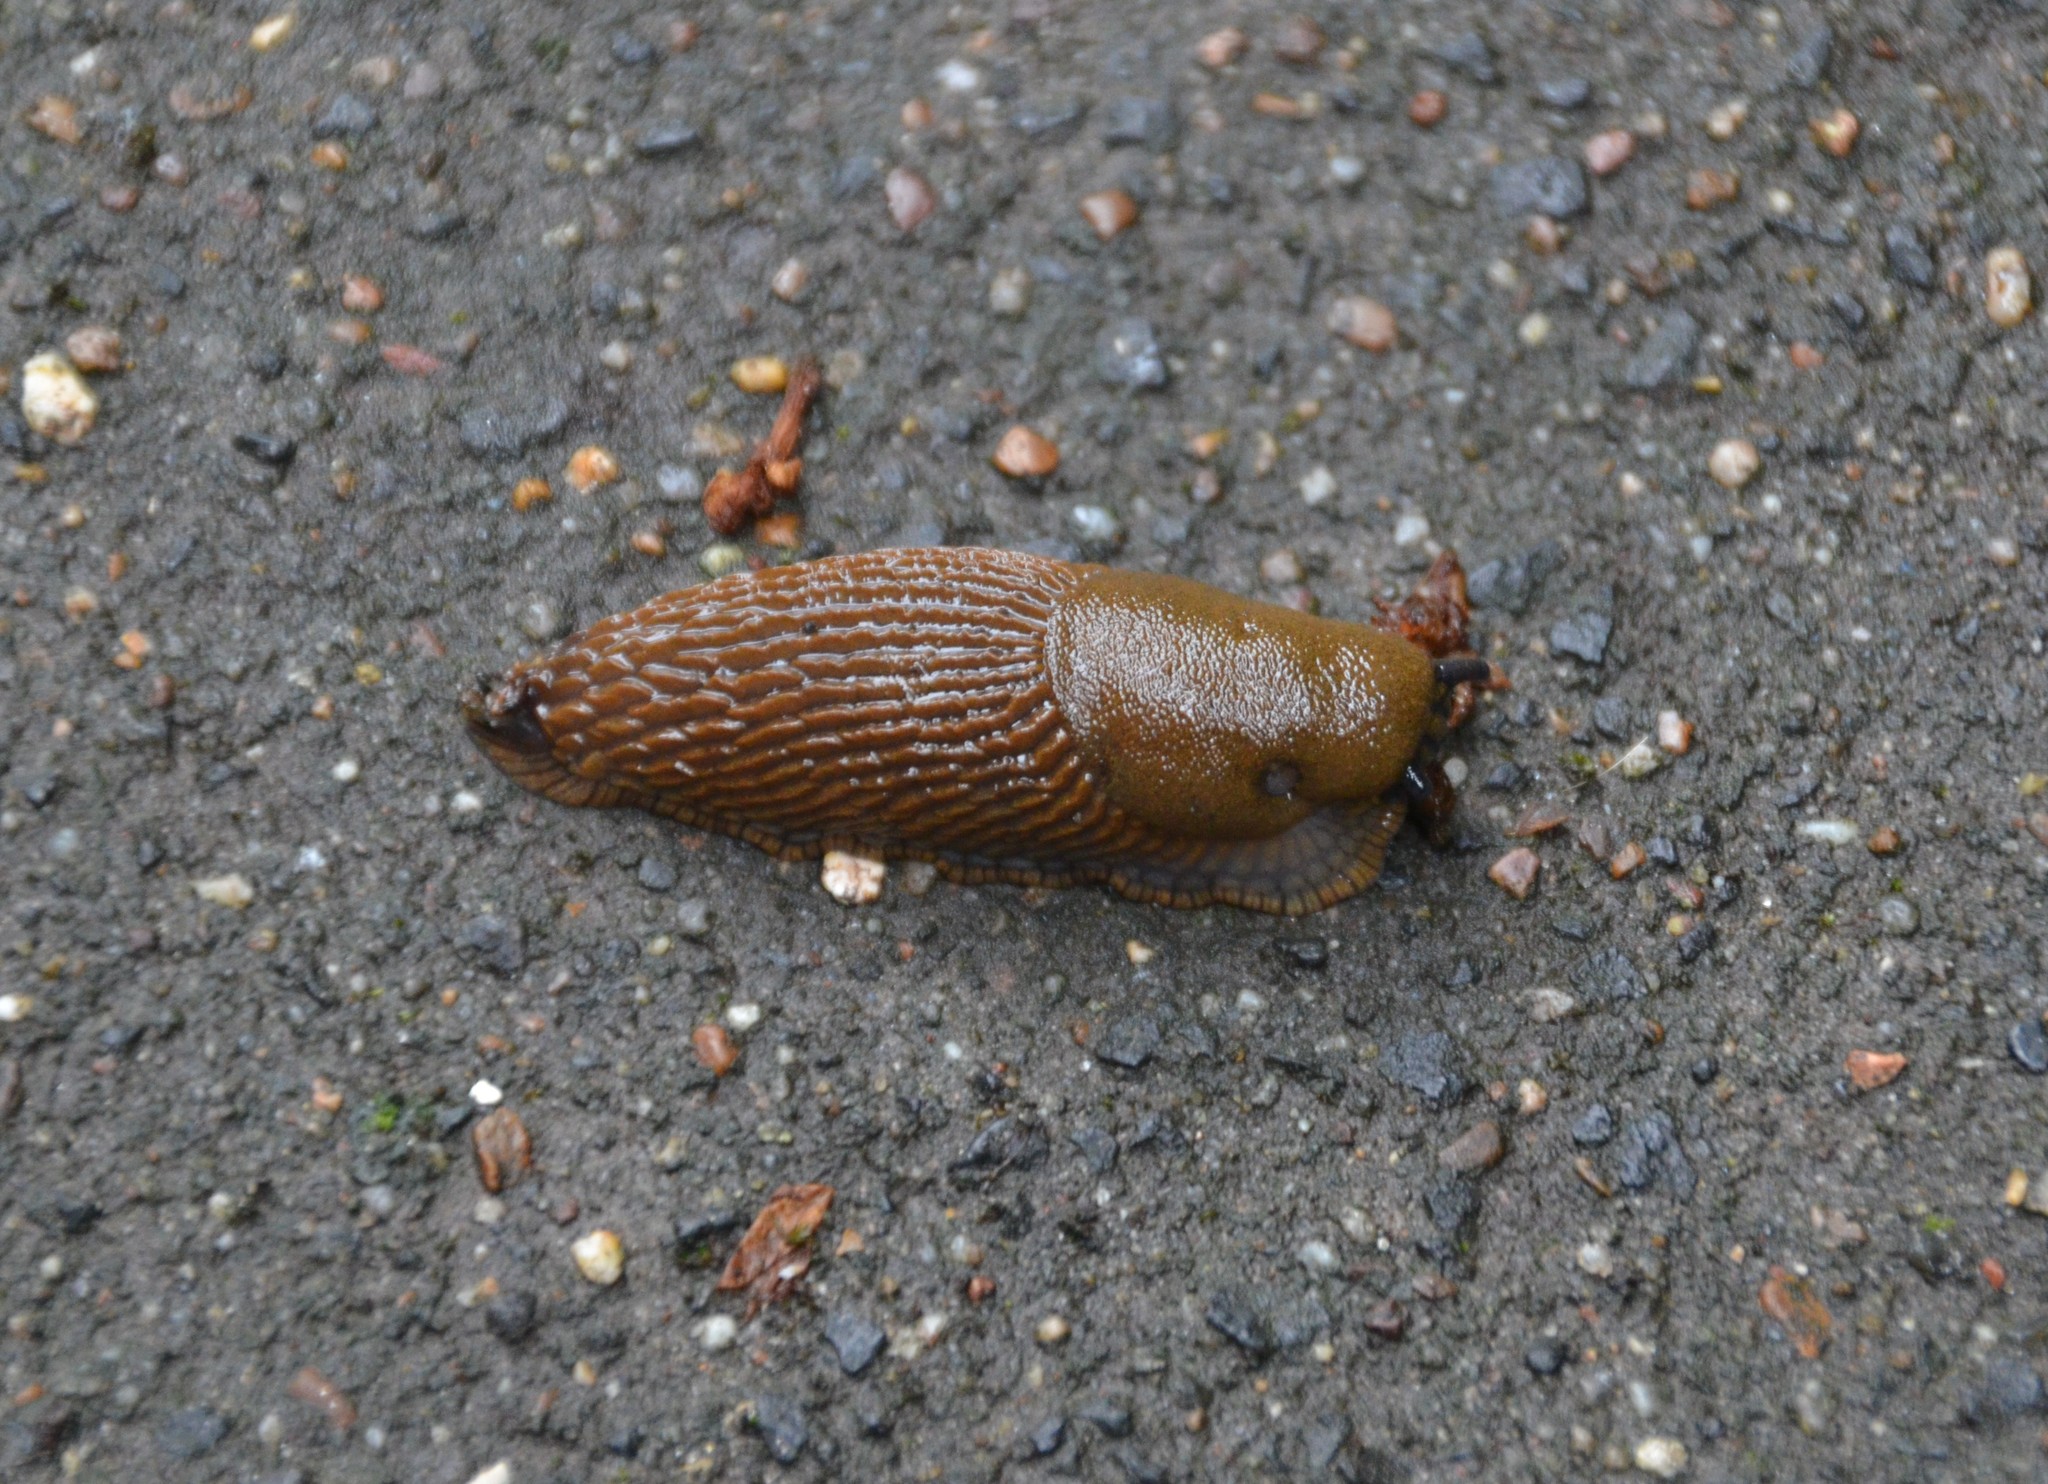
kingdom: Animalia
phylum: Mollusca
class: Gastropoda
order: Stylommatophora
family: Arionidae
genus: Arion
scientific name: Arion vulgaris
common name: Lusitanian slug
